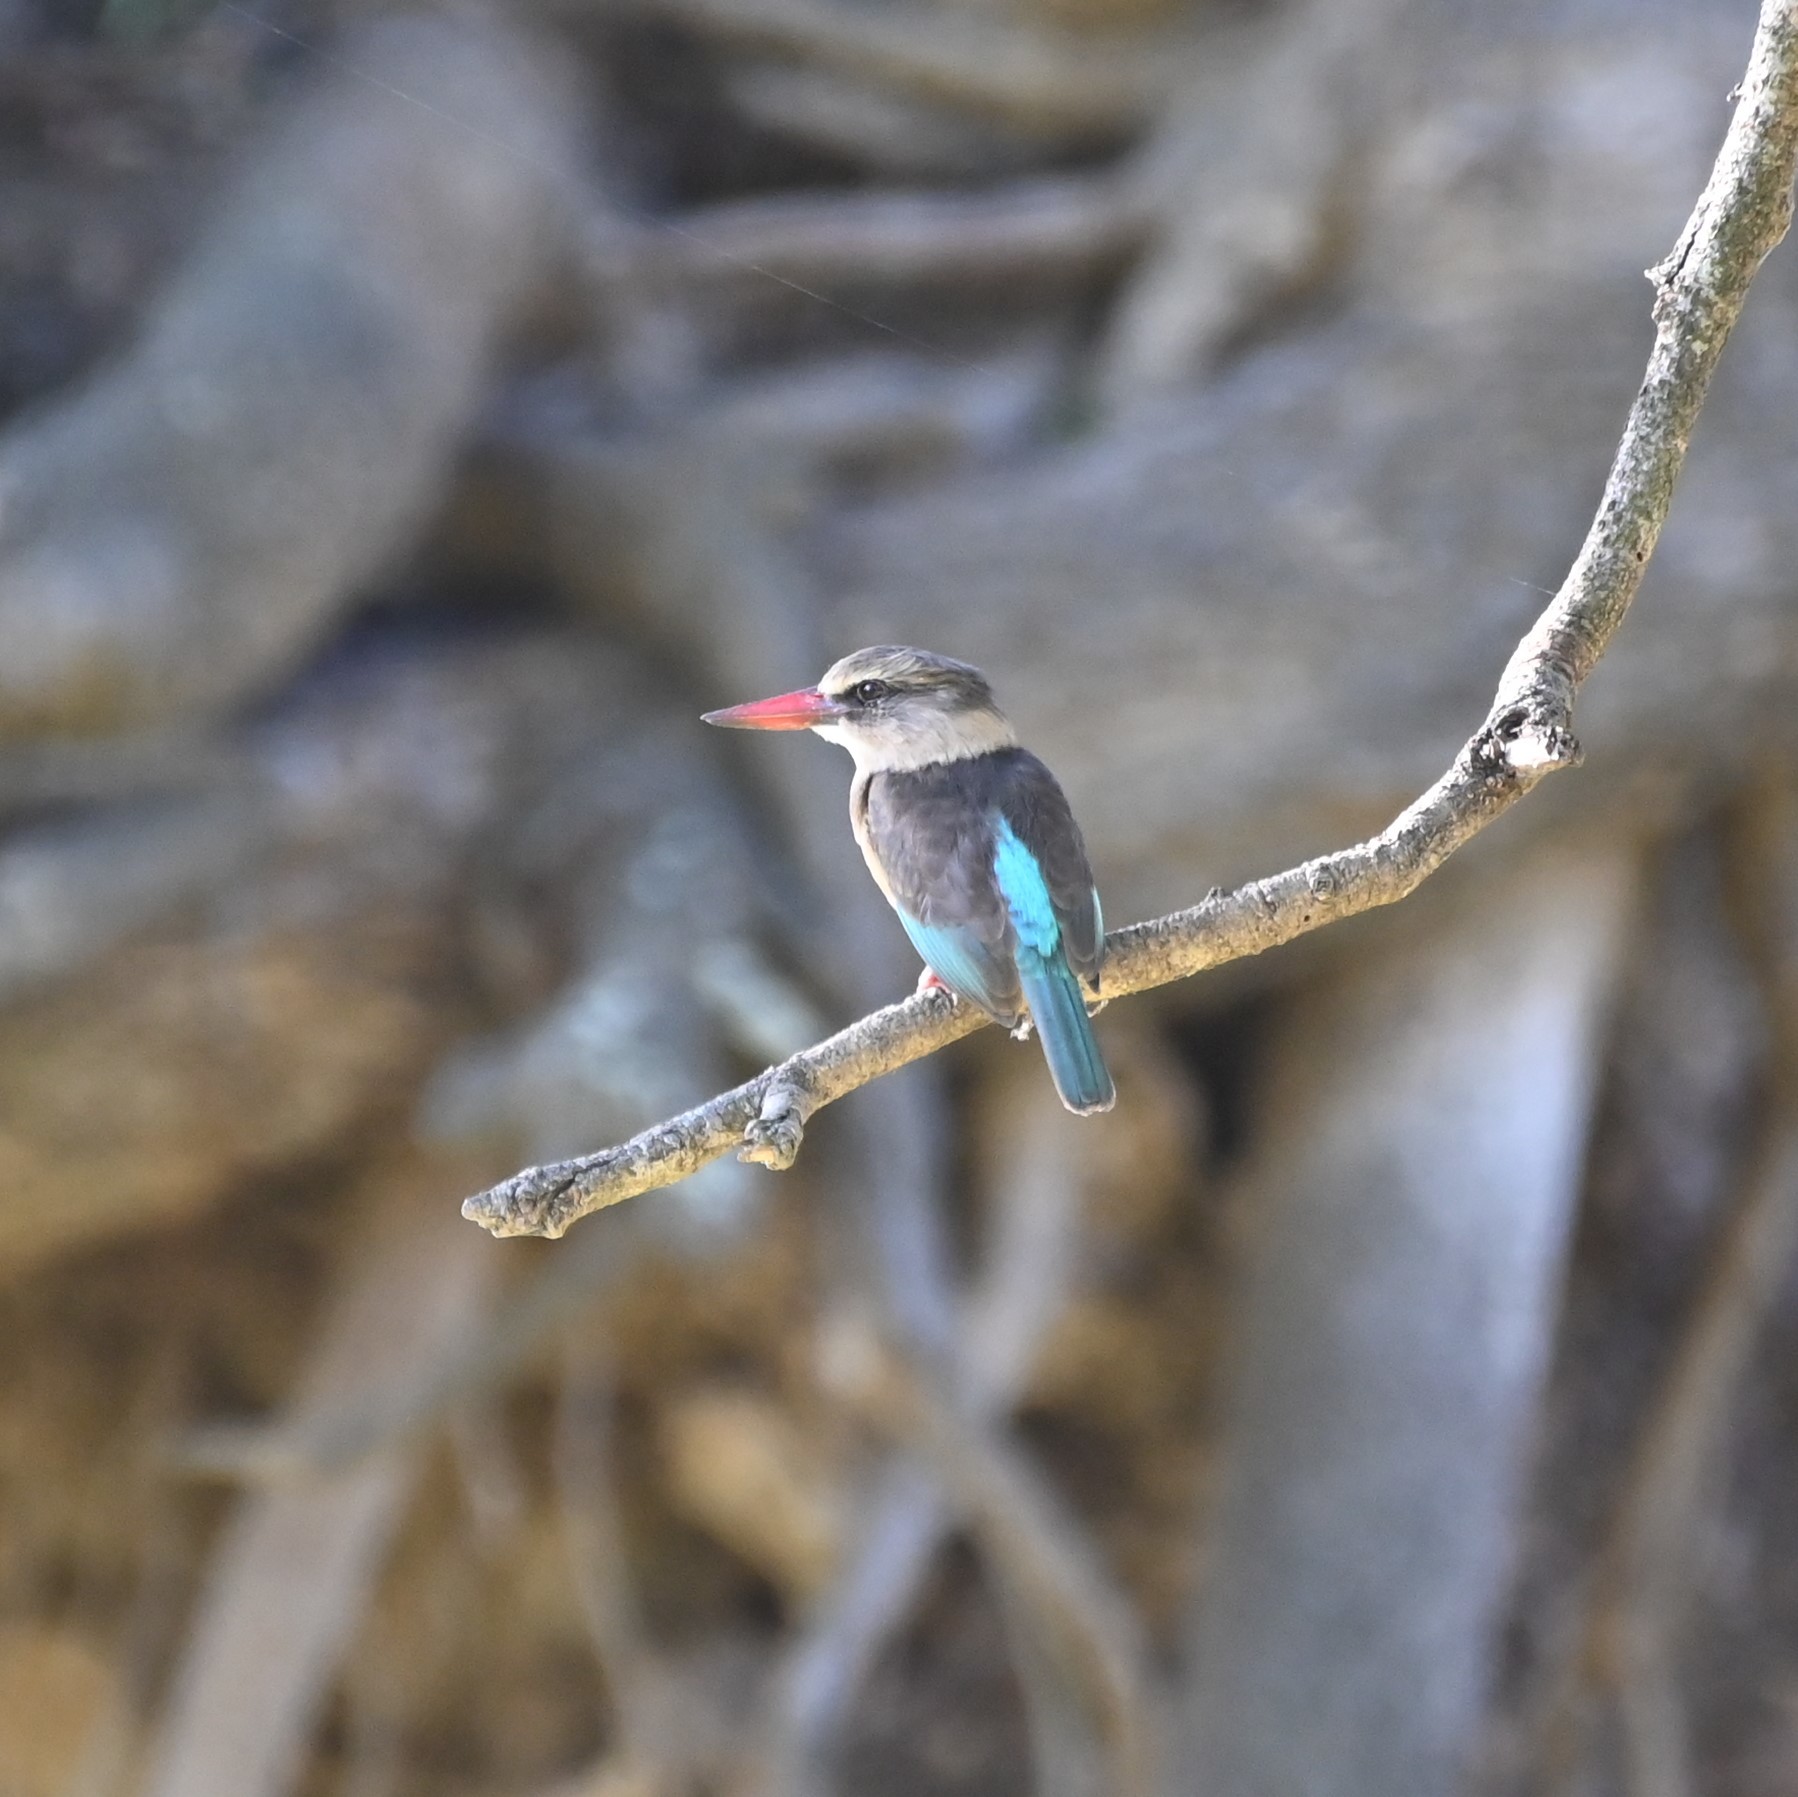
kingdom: Animalia
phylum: Chordata
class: Aves
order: Coraciiformes
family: Alcedinidae
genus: Halcyon
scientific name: Halcyon albiventris
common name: Brown-hooded kingfisher
